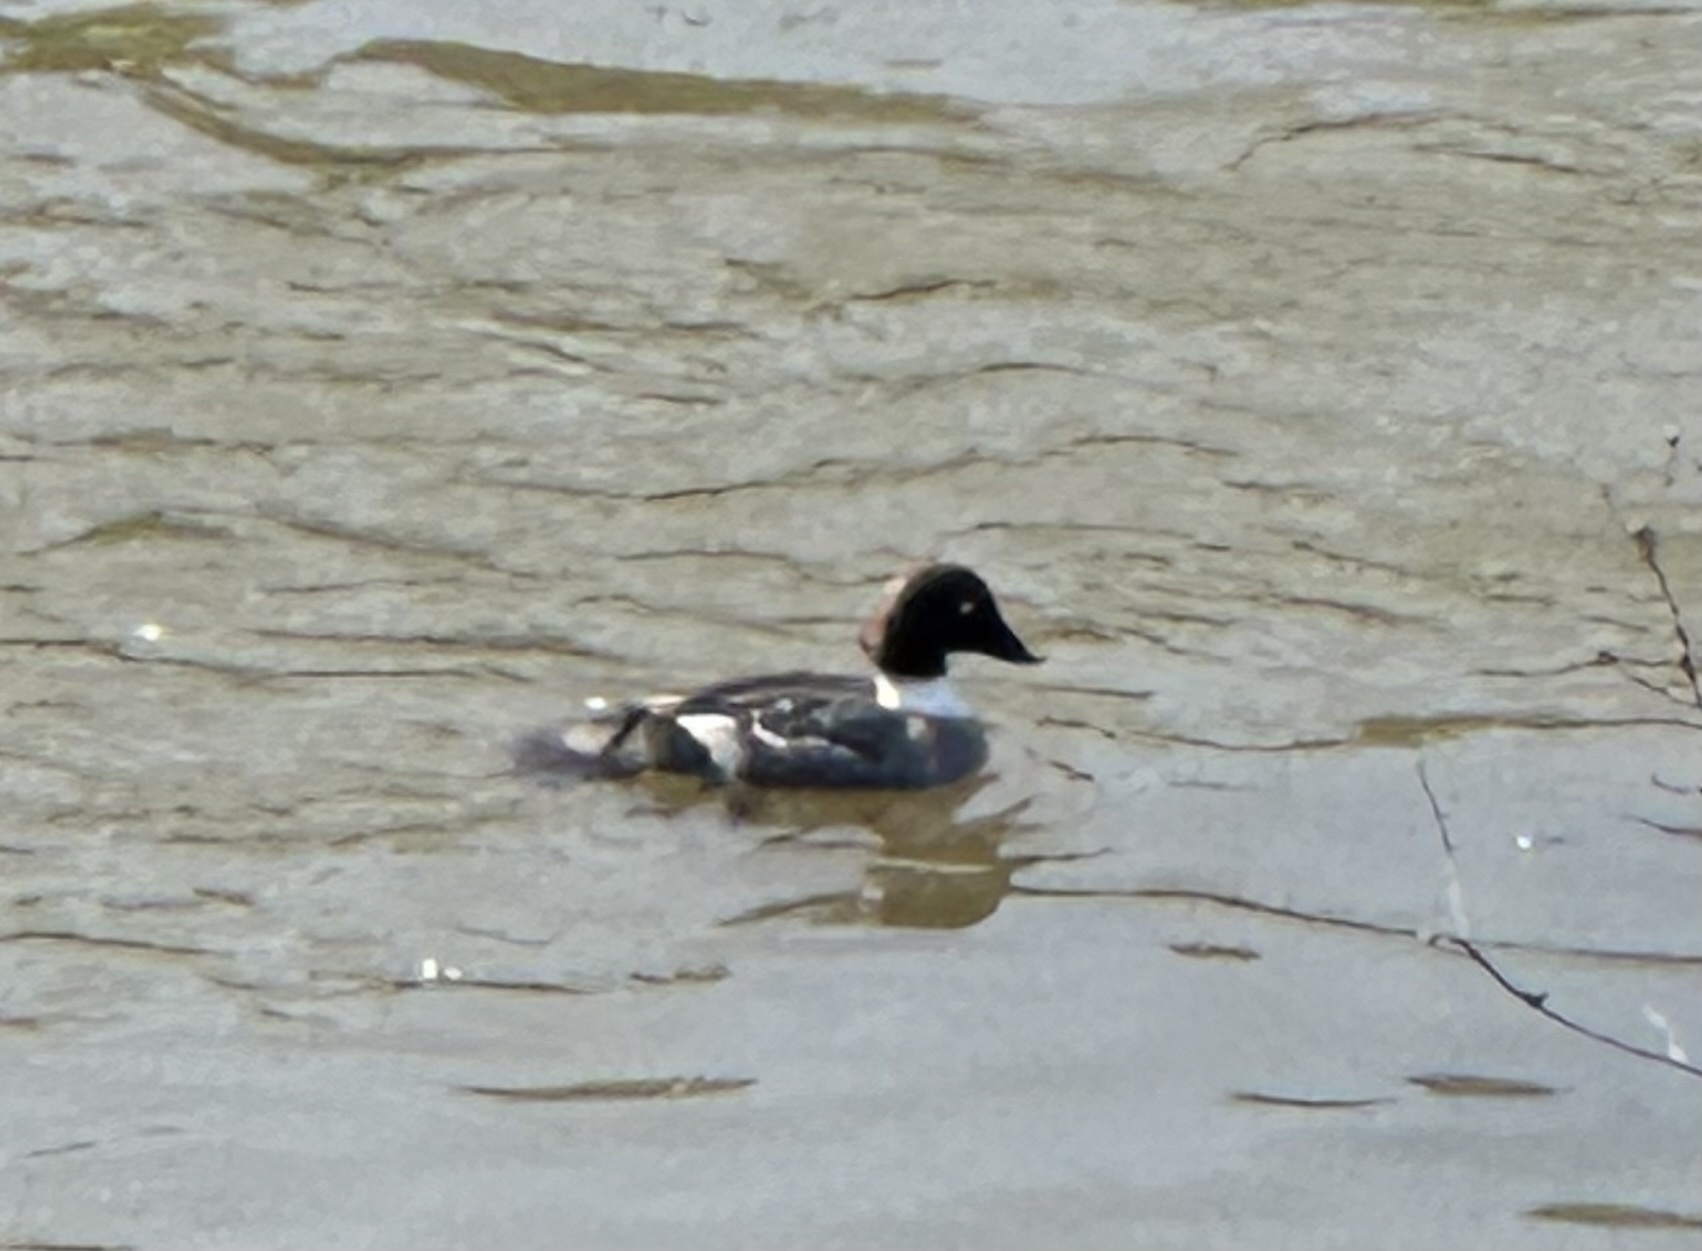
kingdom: Animalia
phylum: Chordata
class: Aves
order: Anseriformes
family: Anatidae
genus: Bucephala
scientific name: Bucephala clangula
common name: Common goldeneye
